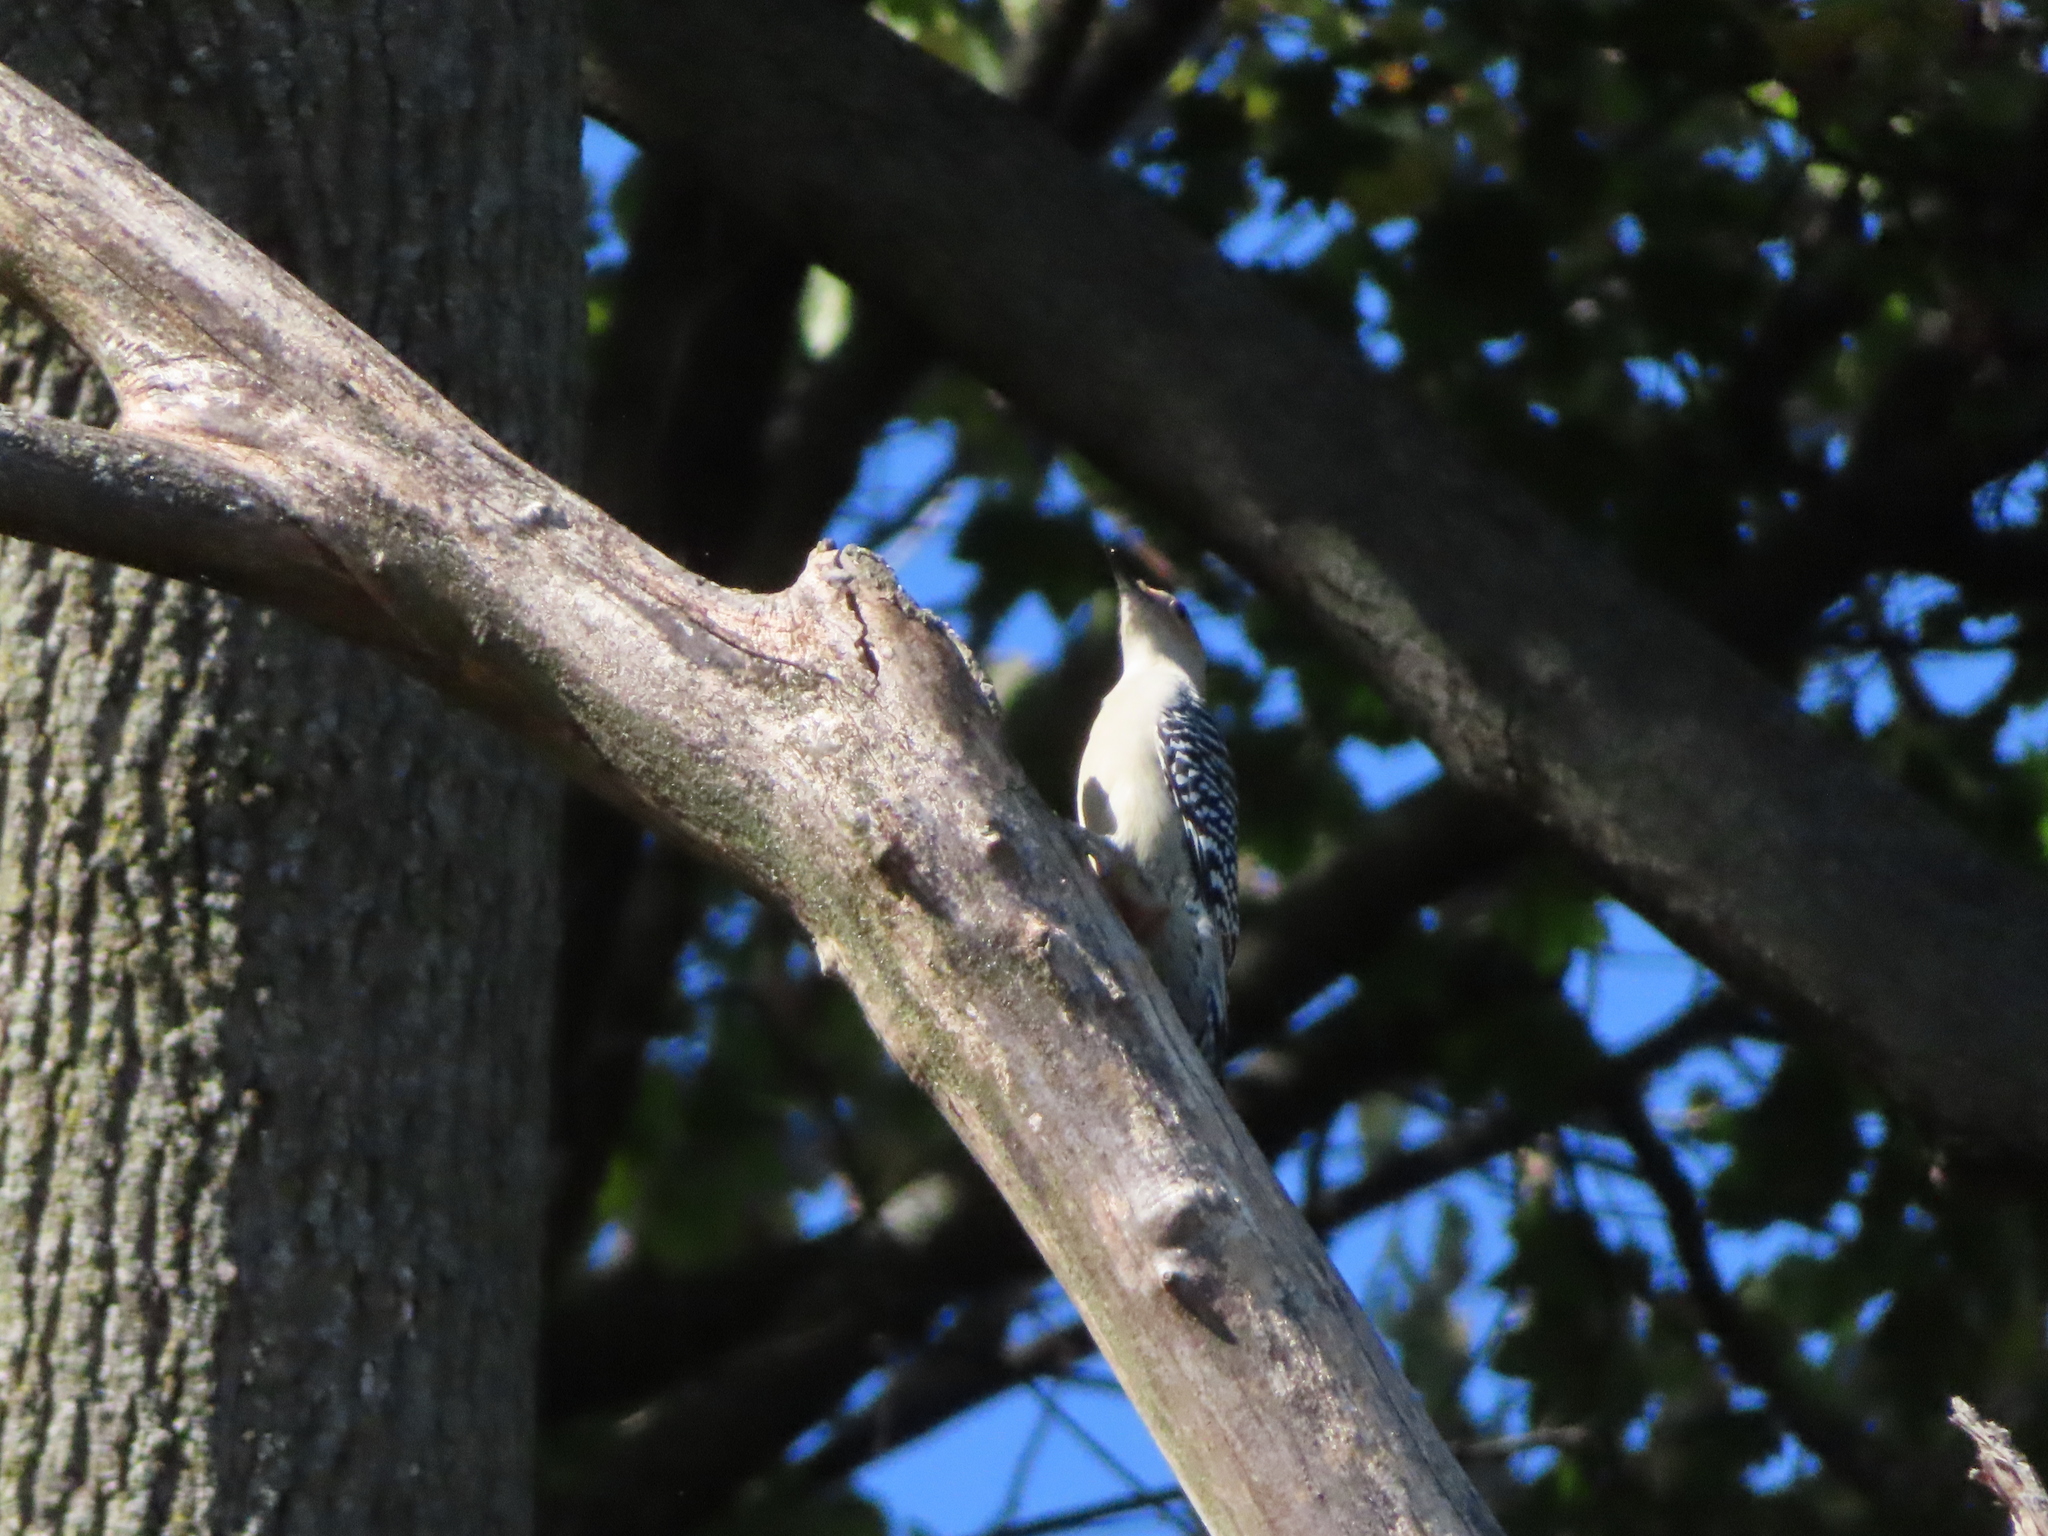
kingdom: Animalia
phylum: Chordata
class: Aves
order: Piciformes
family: Picidae
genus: Melanerpes
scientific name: Melanerpes carolinus
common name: Red-bellied woodpecker
